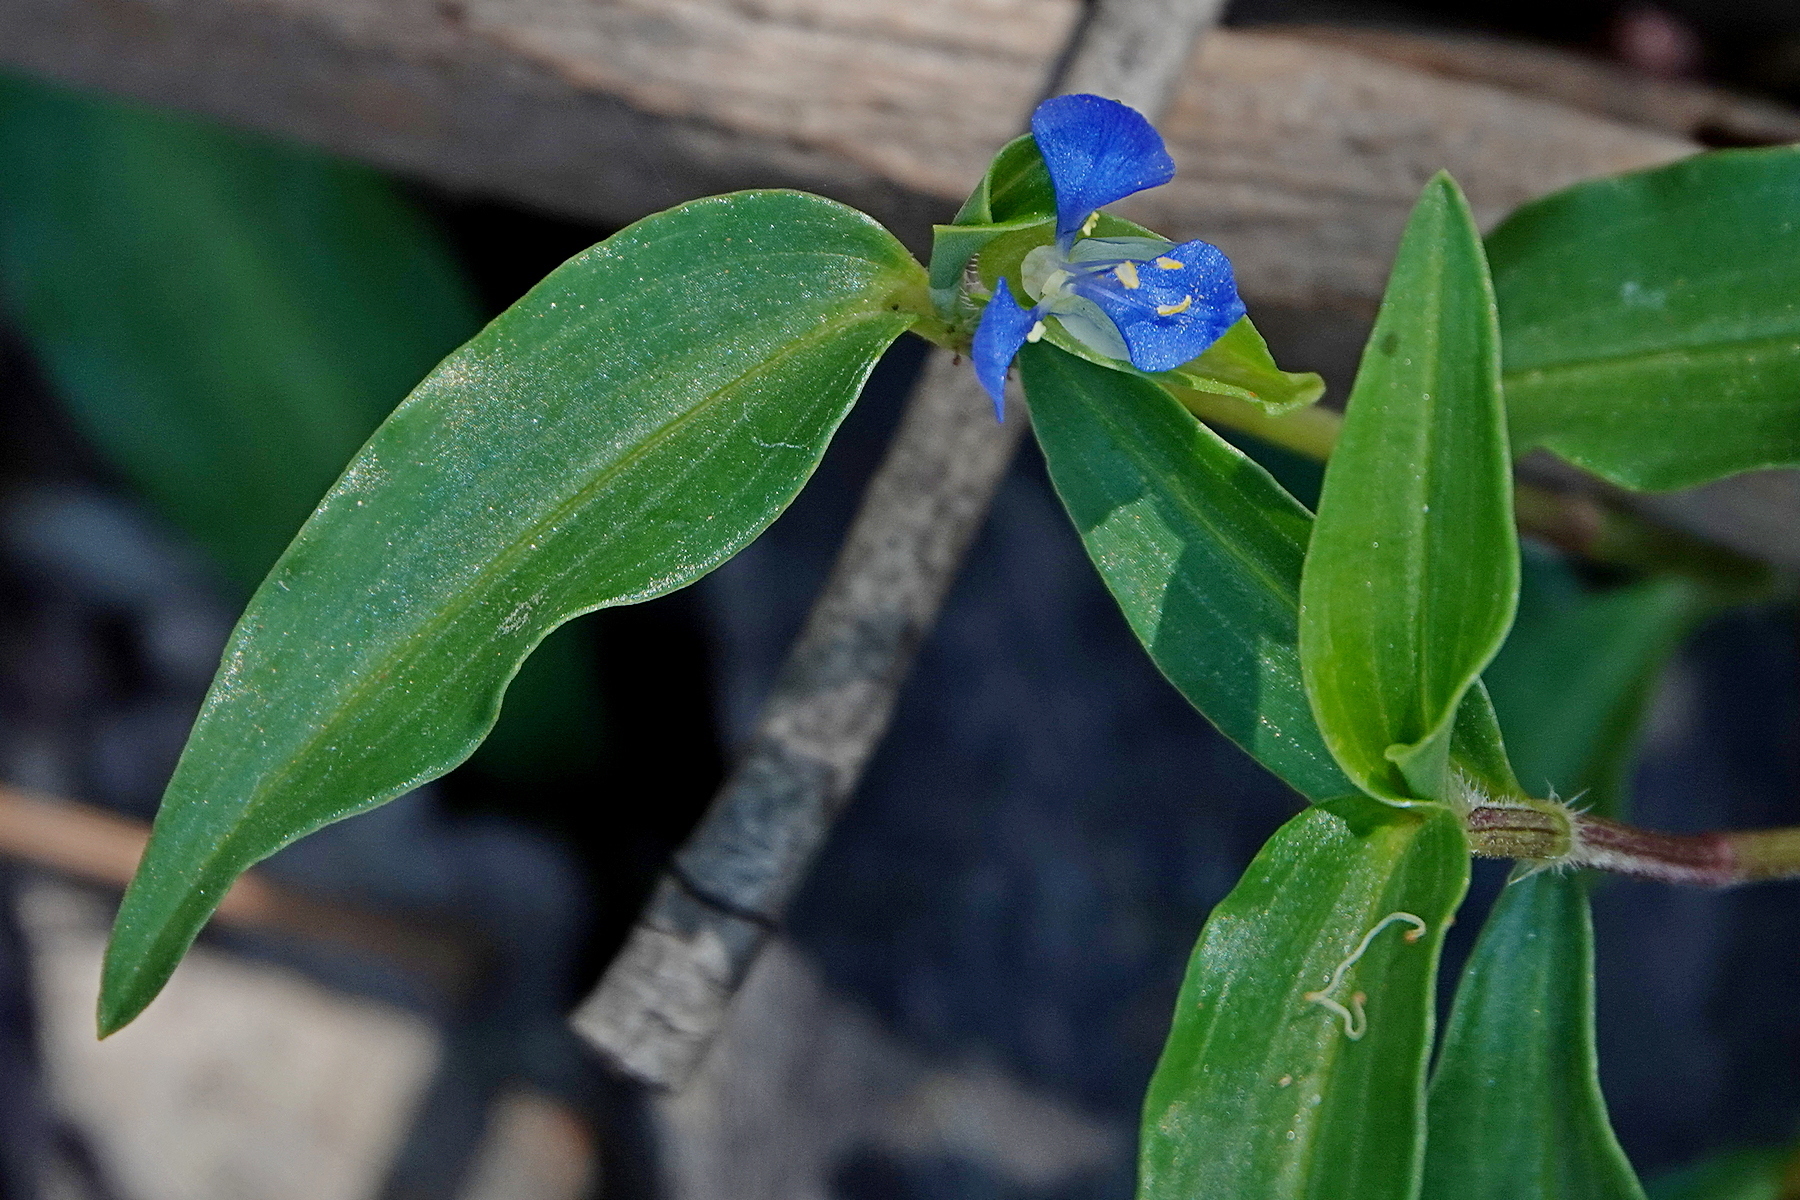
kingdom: Plantae
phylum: Tracheophyta
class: Liliopsida
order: Commelinales
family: Commelinaceae
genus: Commelina
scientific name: Commelina cyanea
